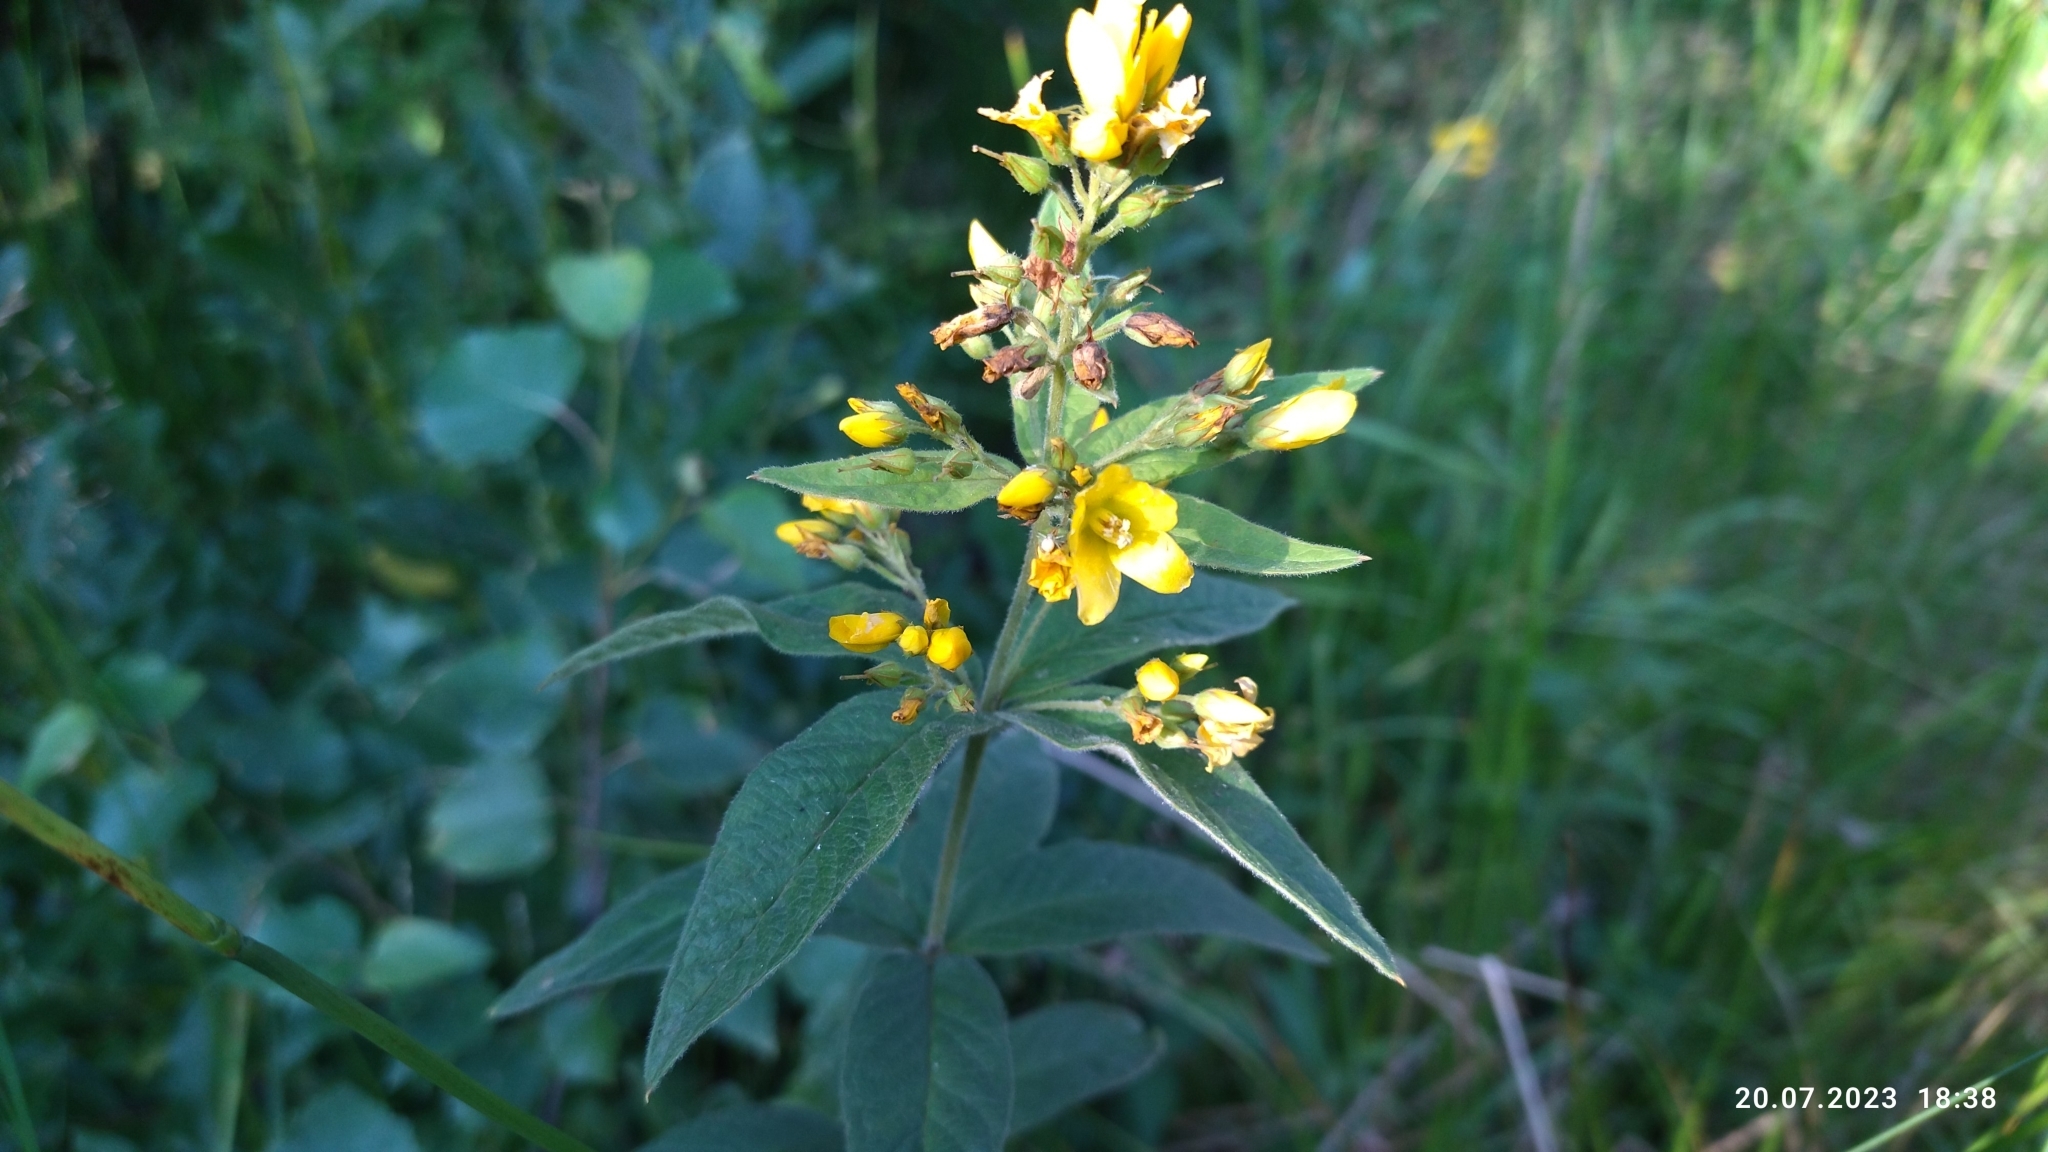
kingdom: Plantae
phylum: Tracheophyta
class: Magnoliopsida
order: Ericales
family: Primulaceae
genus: Lysimachia
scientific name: Lysimachia vulgaris
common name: Yellow loosestrife
